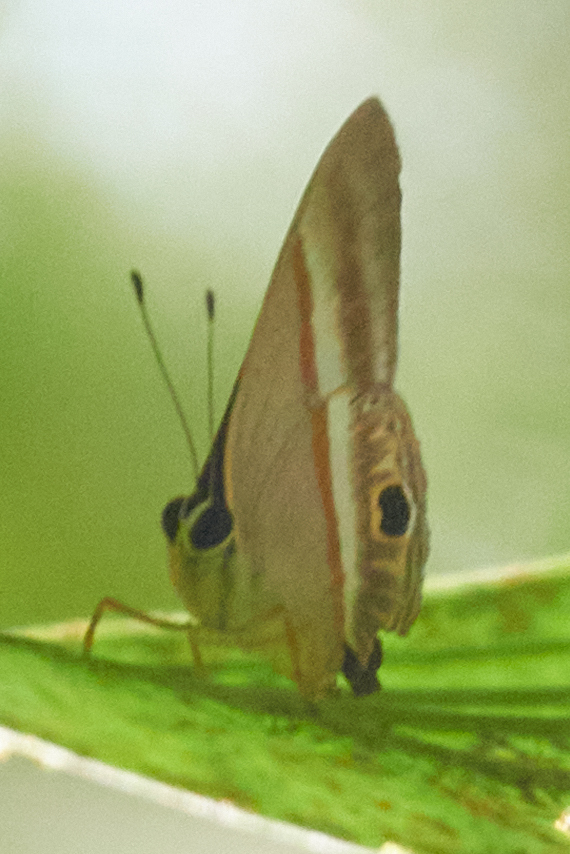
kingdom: Animalia
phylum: Arthropoda
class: Insecta
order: Lepidoptera
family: Lycaenidae
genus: Euselasia
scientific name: Euselasia regipennis
